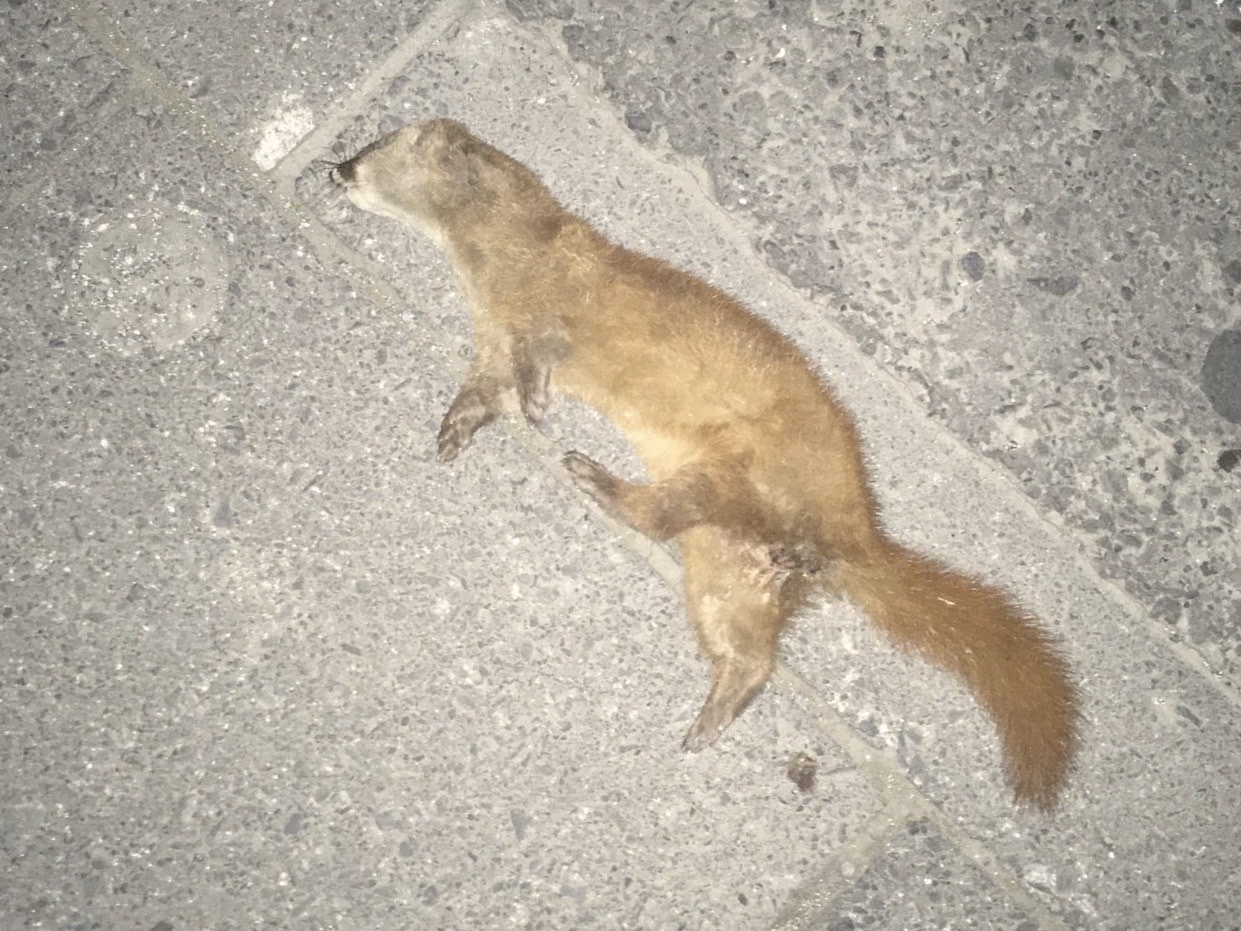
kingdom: Animalia
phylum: Chordata
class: Mammalia
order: Carnivora
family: Mustelidae
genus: Mustela
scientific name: Mustela itatsi
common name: Japanese weasel
